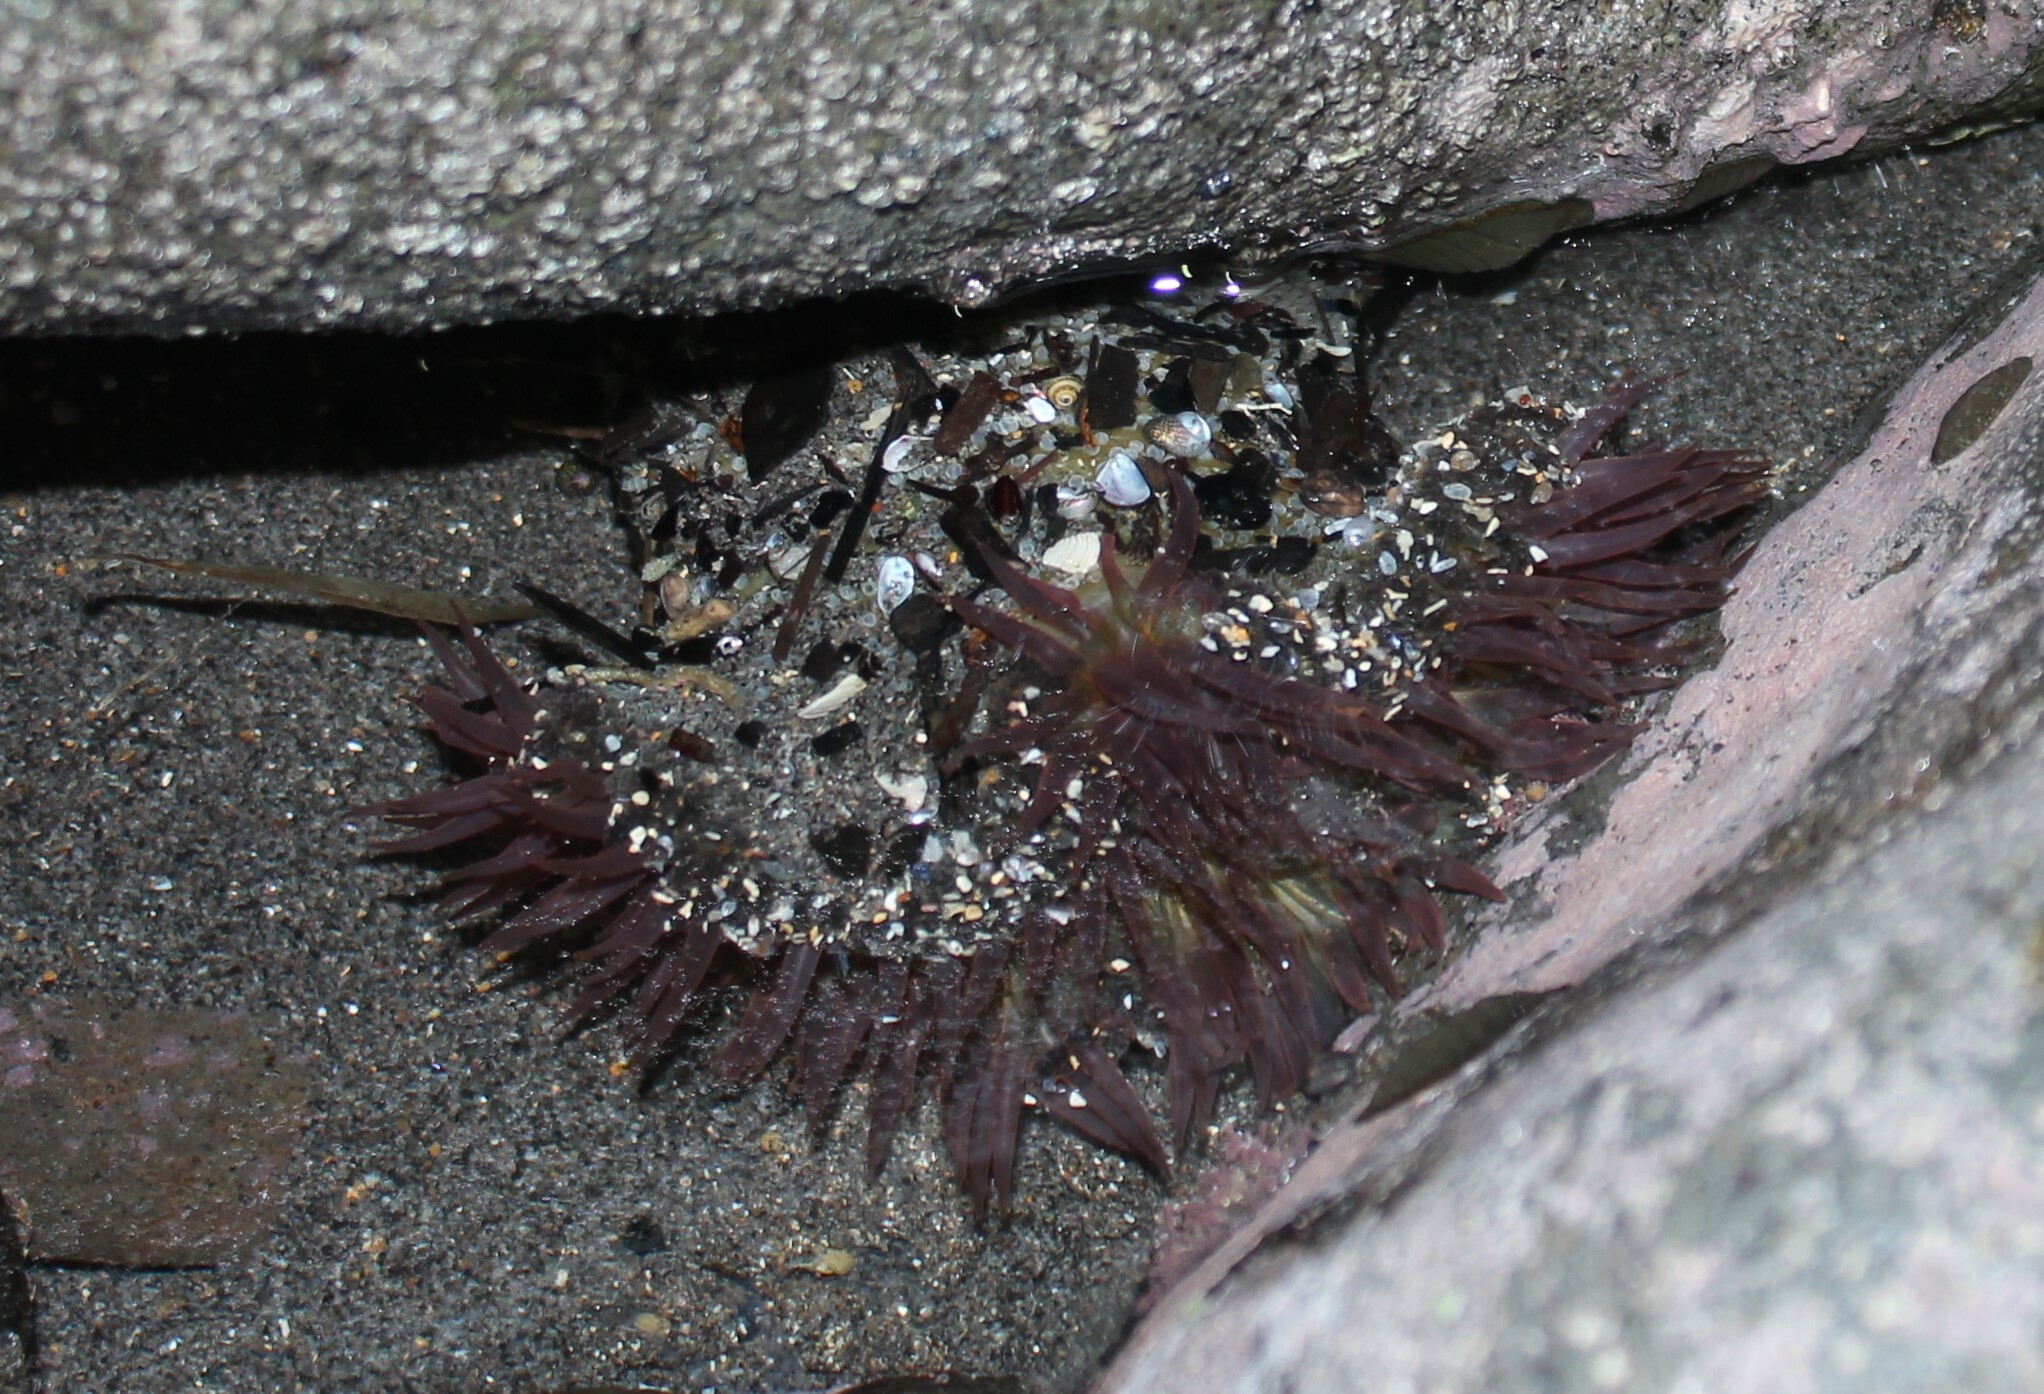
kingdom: Animalia
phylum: Cnidaria
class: Anthozoa
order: Actiniaria
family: Actiniidae
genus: Oulactis
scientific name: Oulactis magna
